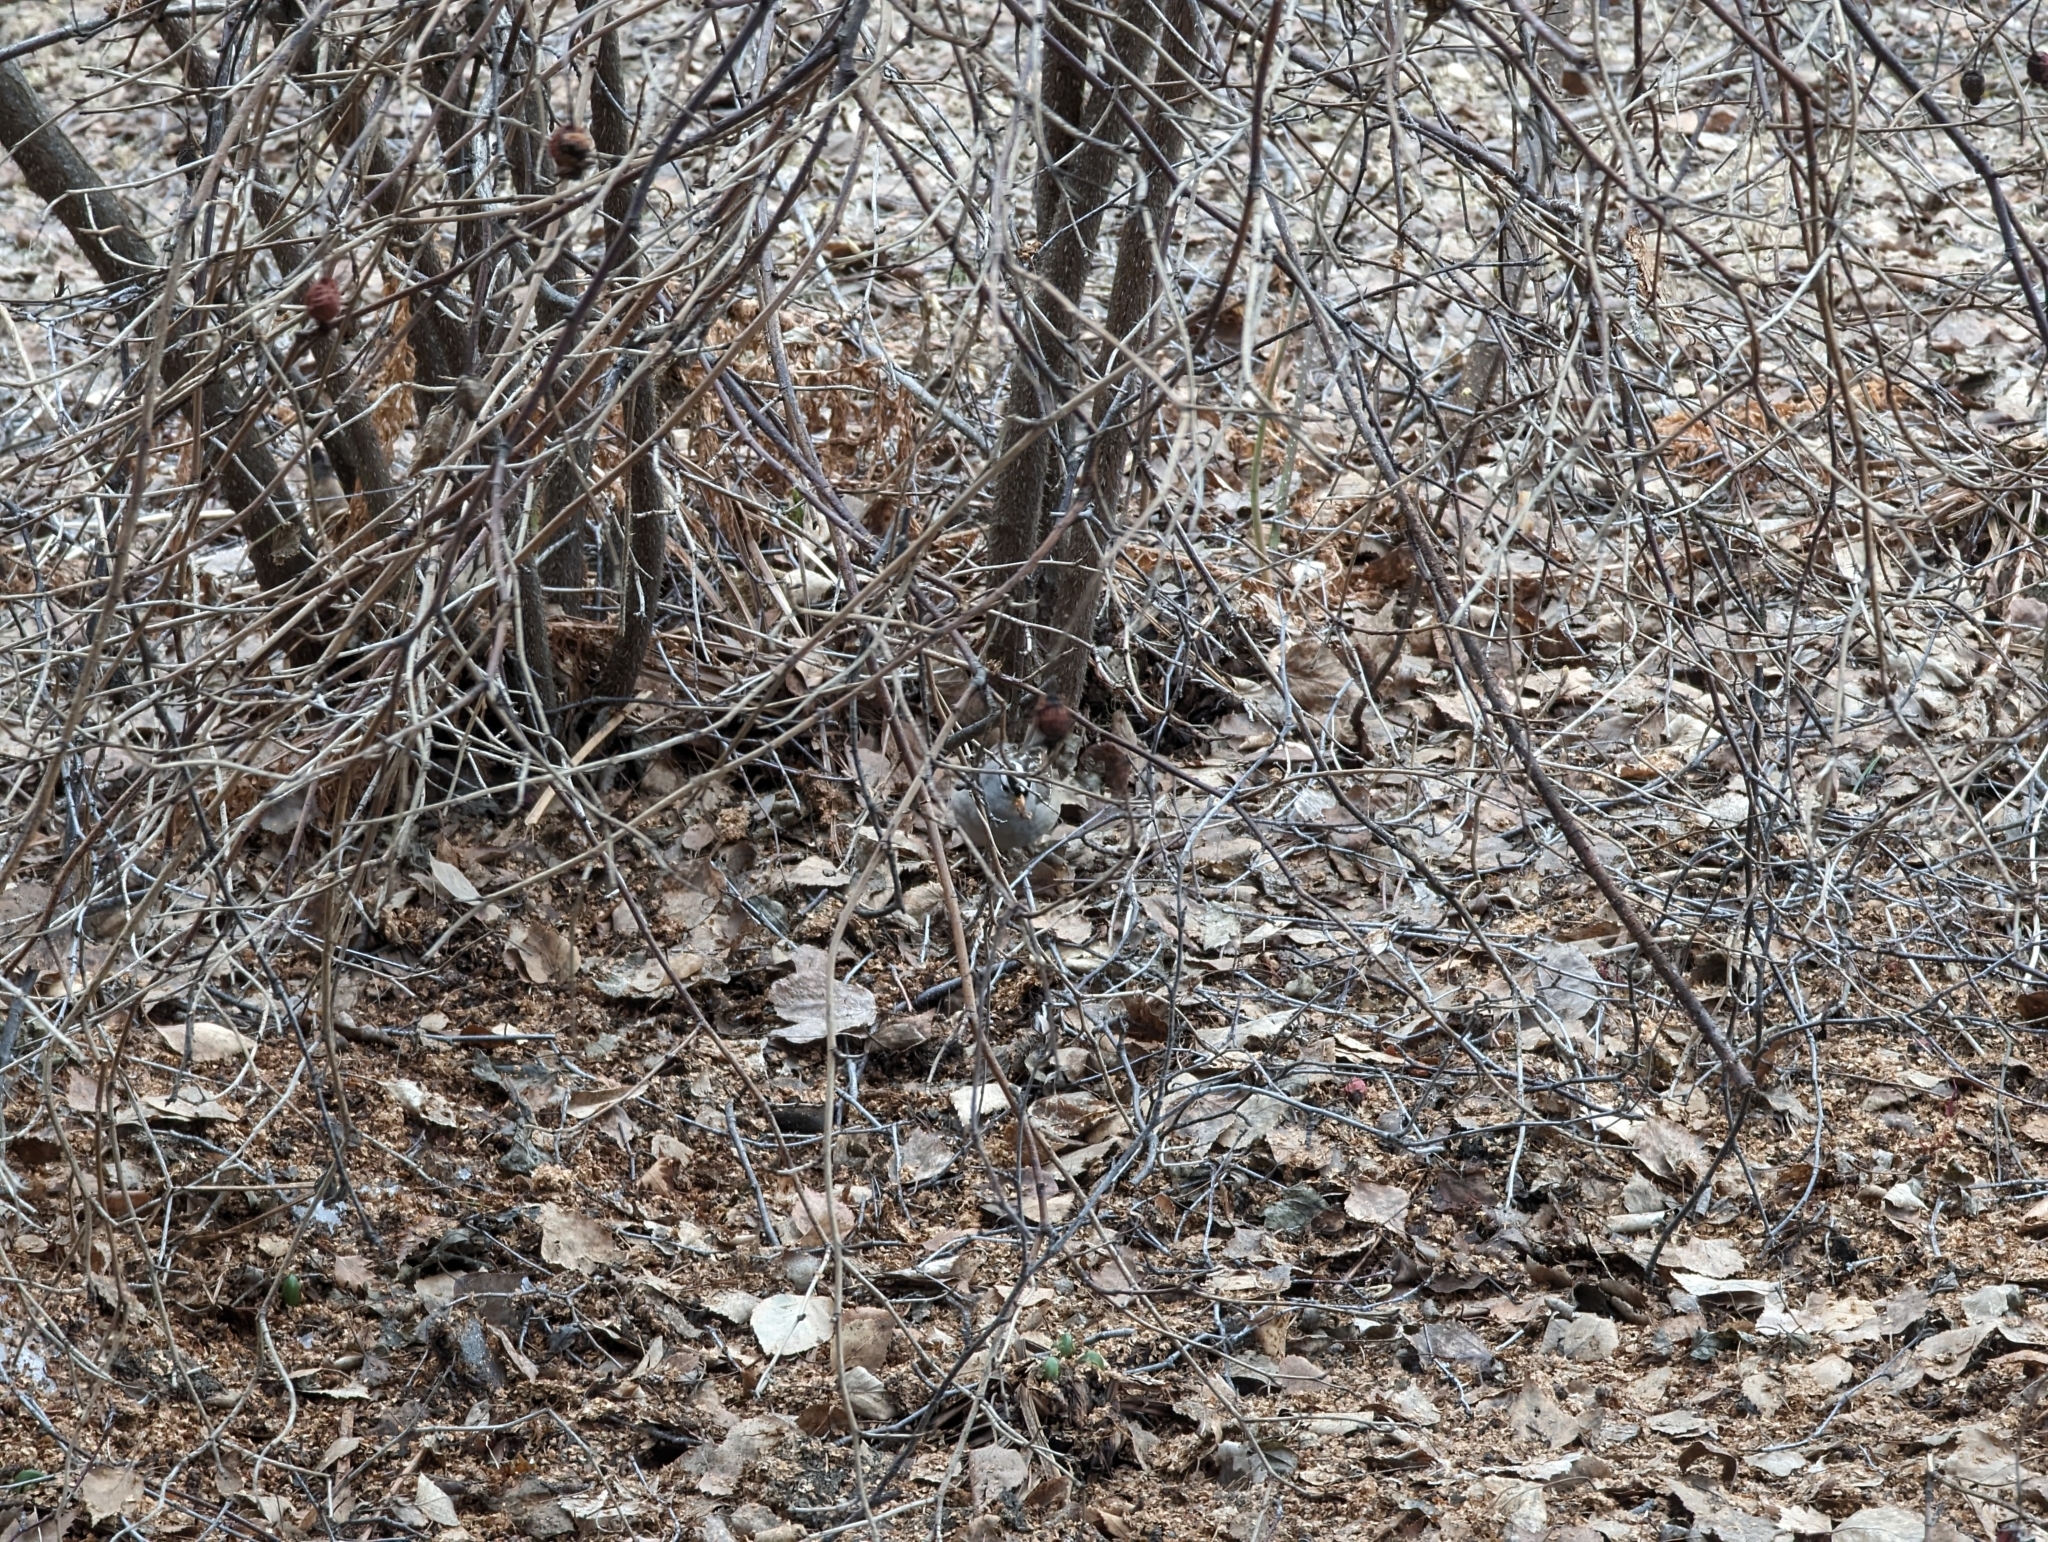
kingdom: Animalia
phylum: Chordata
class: Aves
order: Passeriformes
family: Passerellidae
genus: Zonotrichia
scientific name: Zonotrichia leucophrys
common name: White-crowned sparrow
